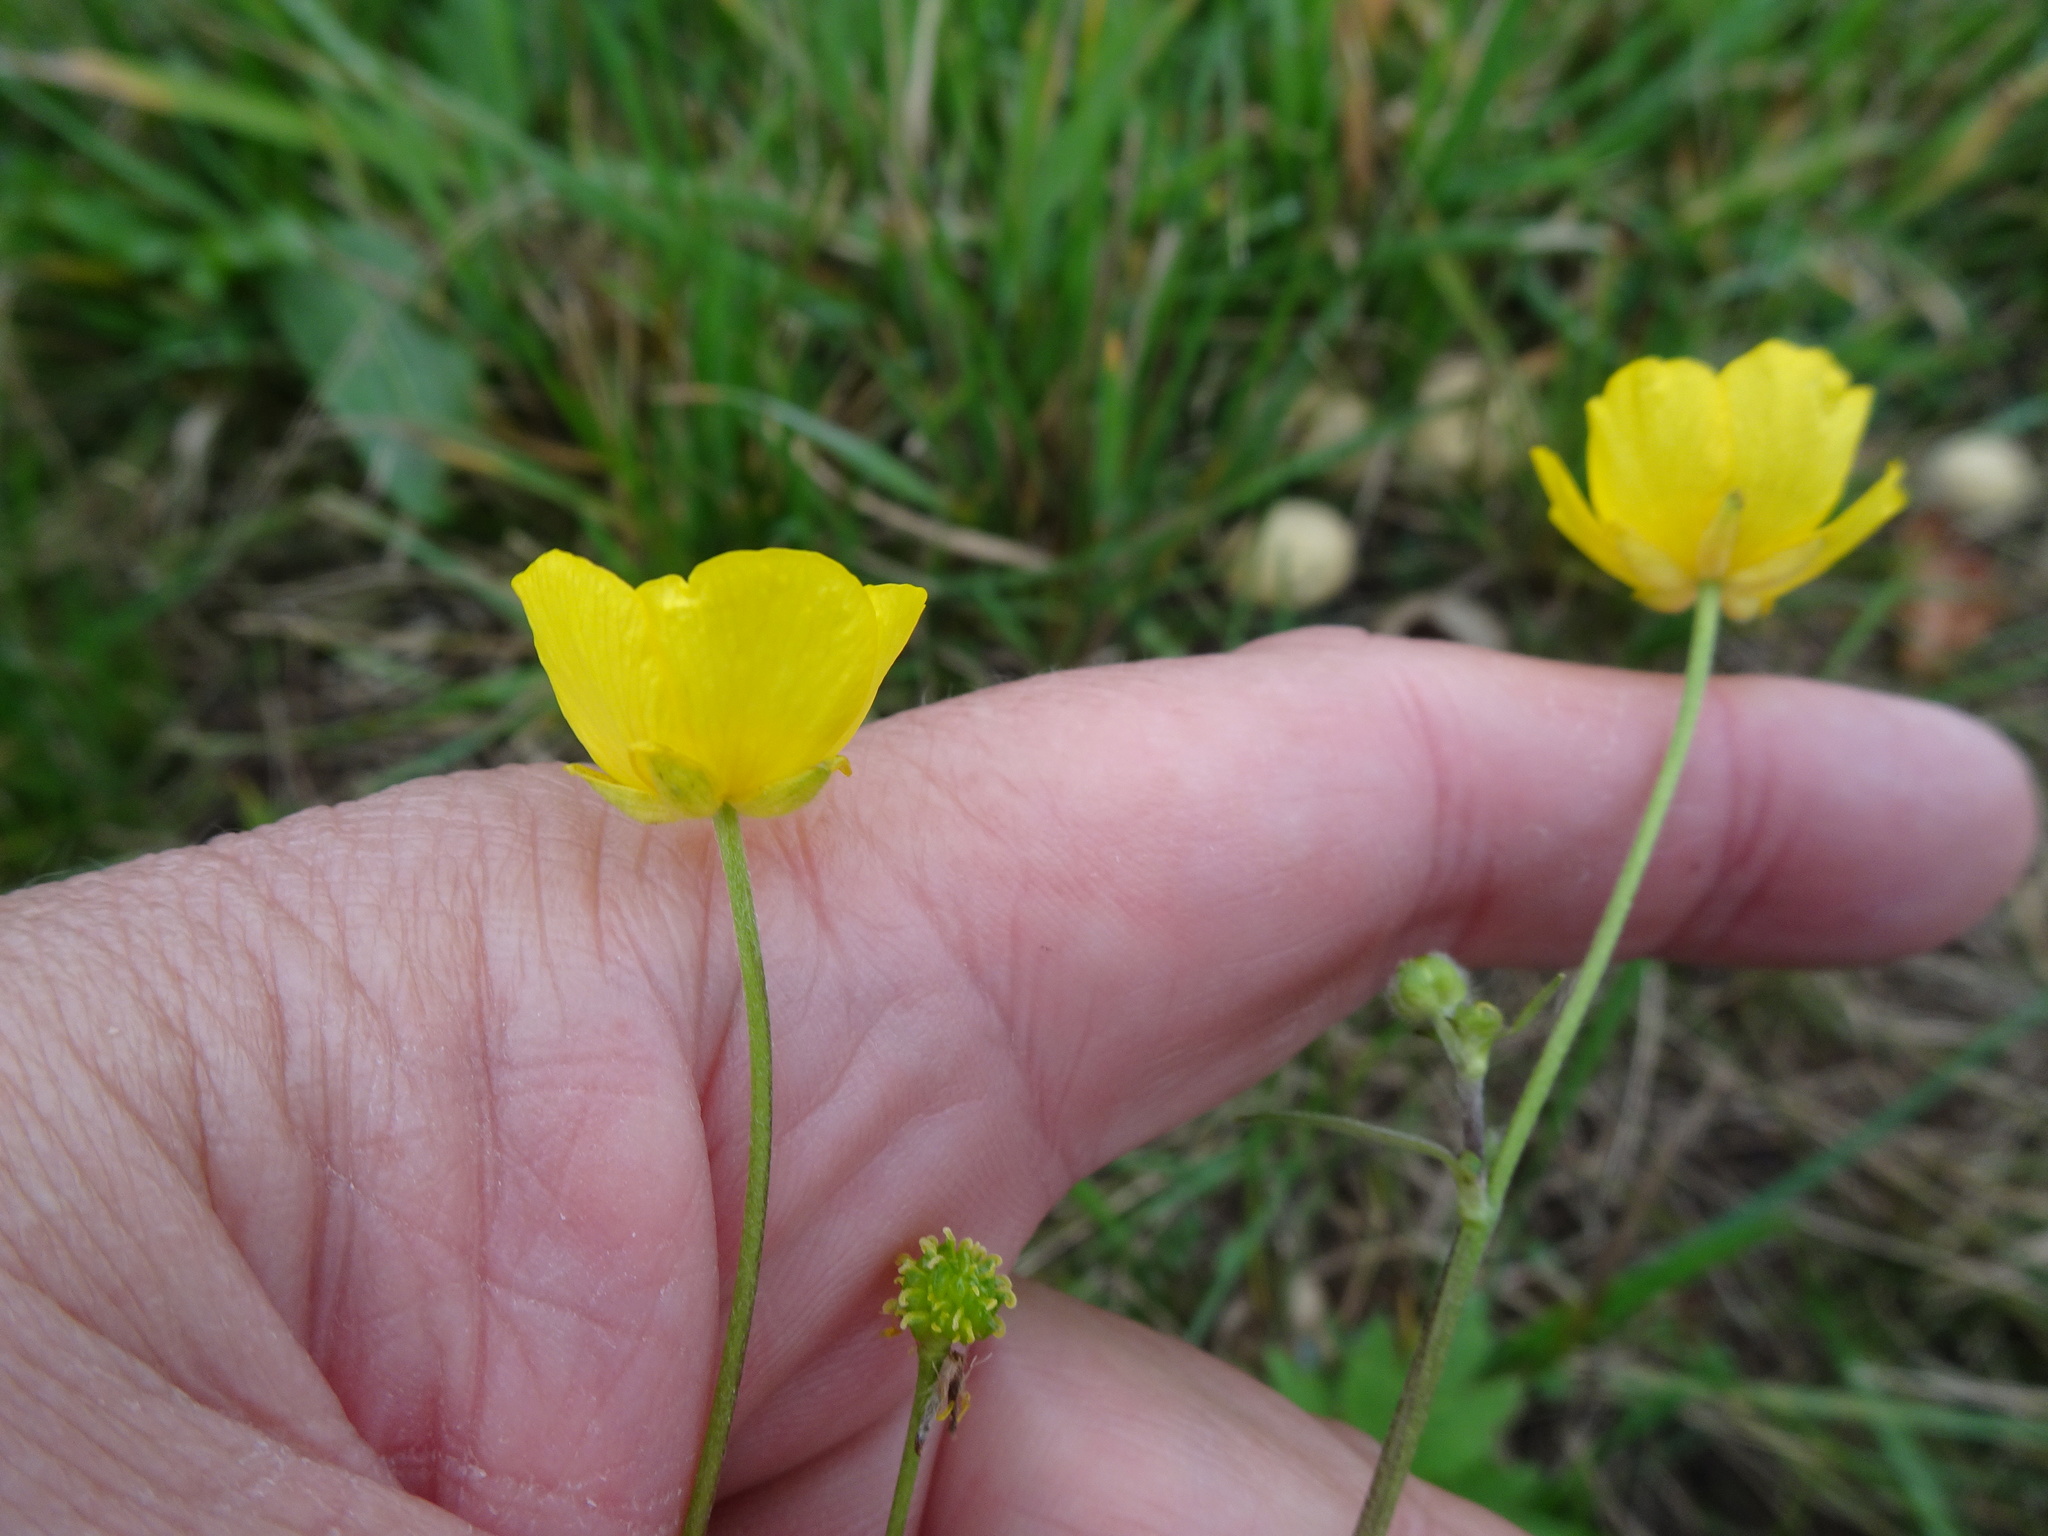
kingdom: Plantae
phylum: Tracheophyta
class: Magnoliopsida
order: Ranunculales
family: Ranunculaceae
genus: Ranunculus
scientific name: Ranunculus acris
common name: Meadow buttercup
